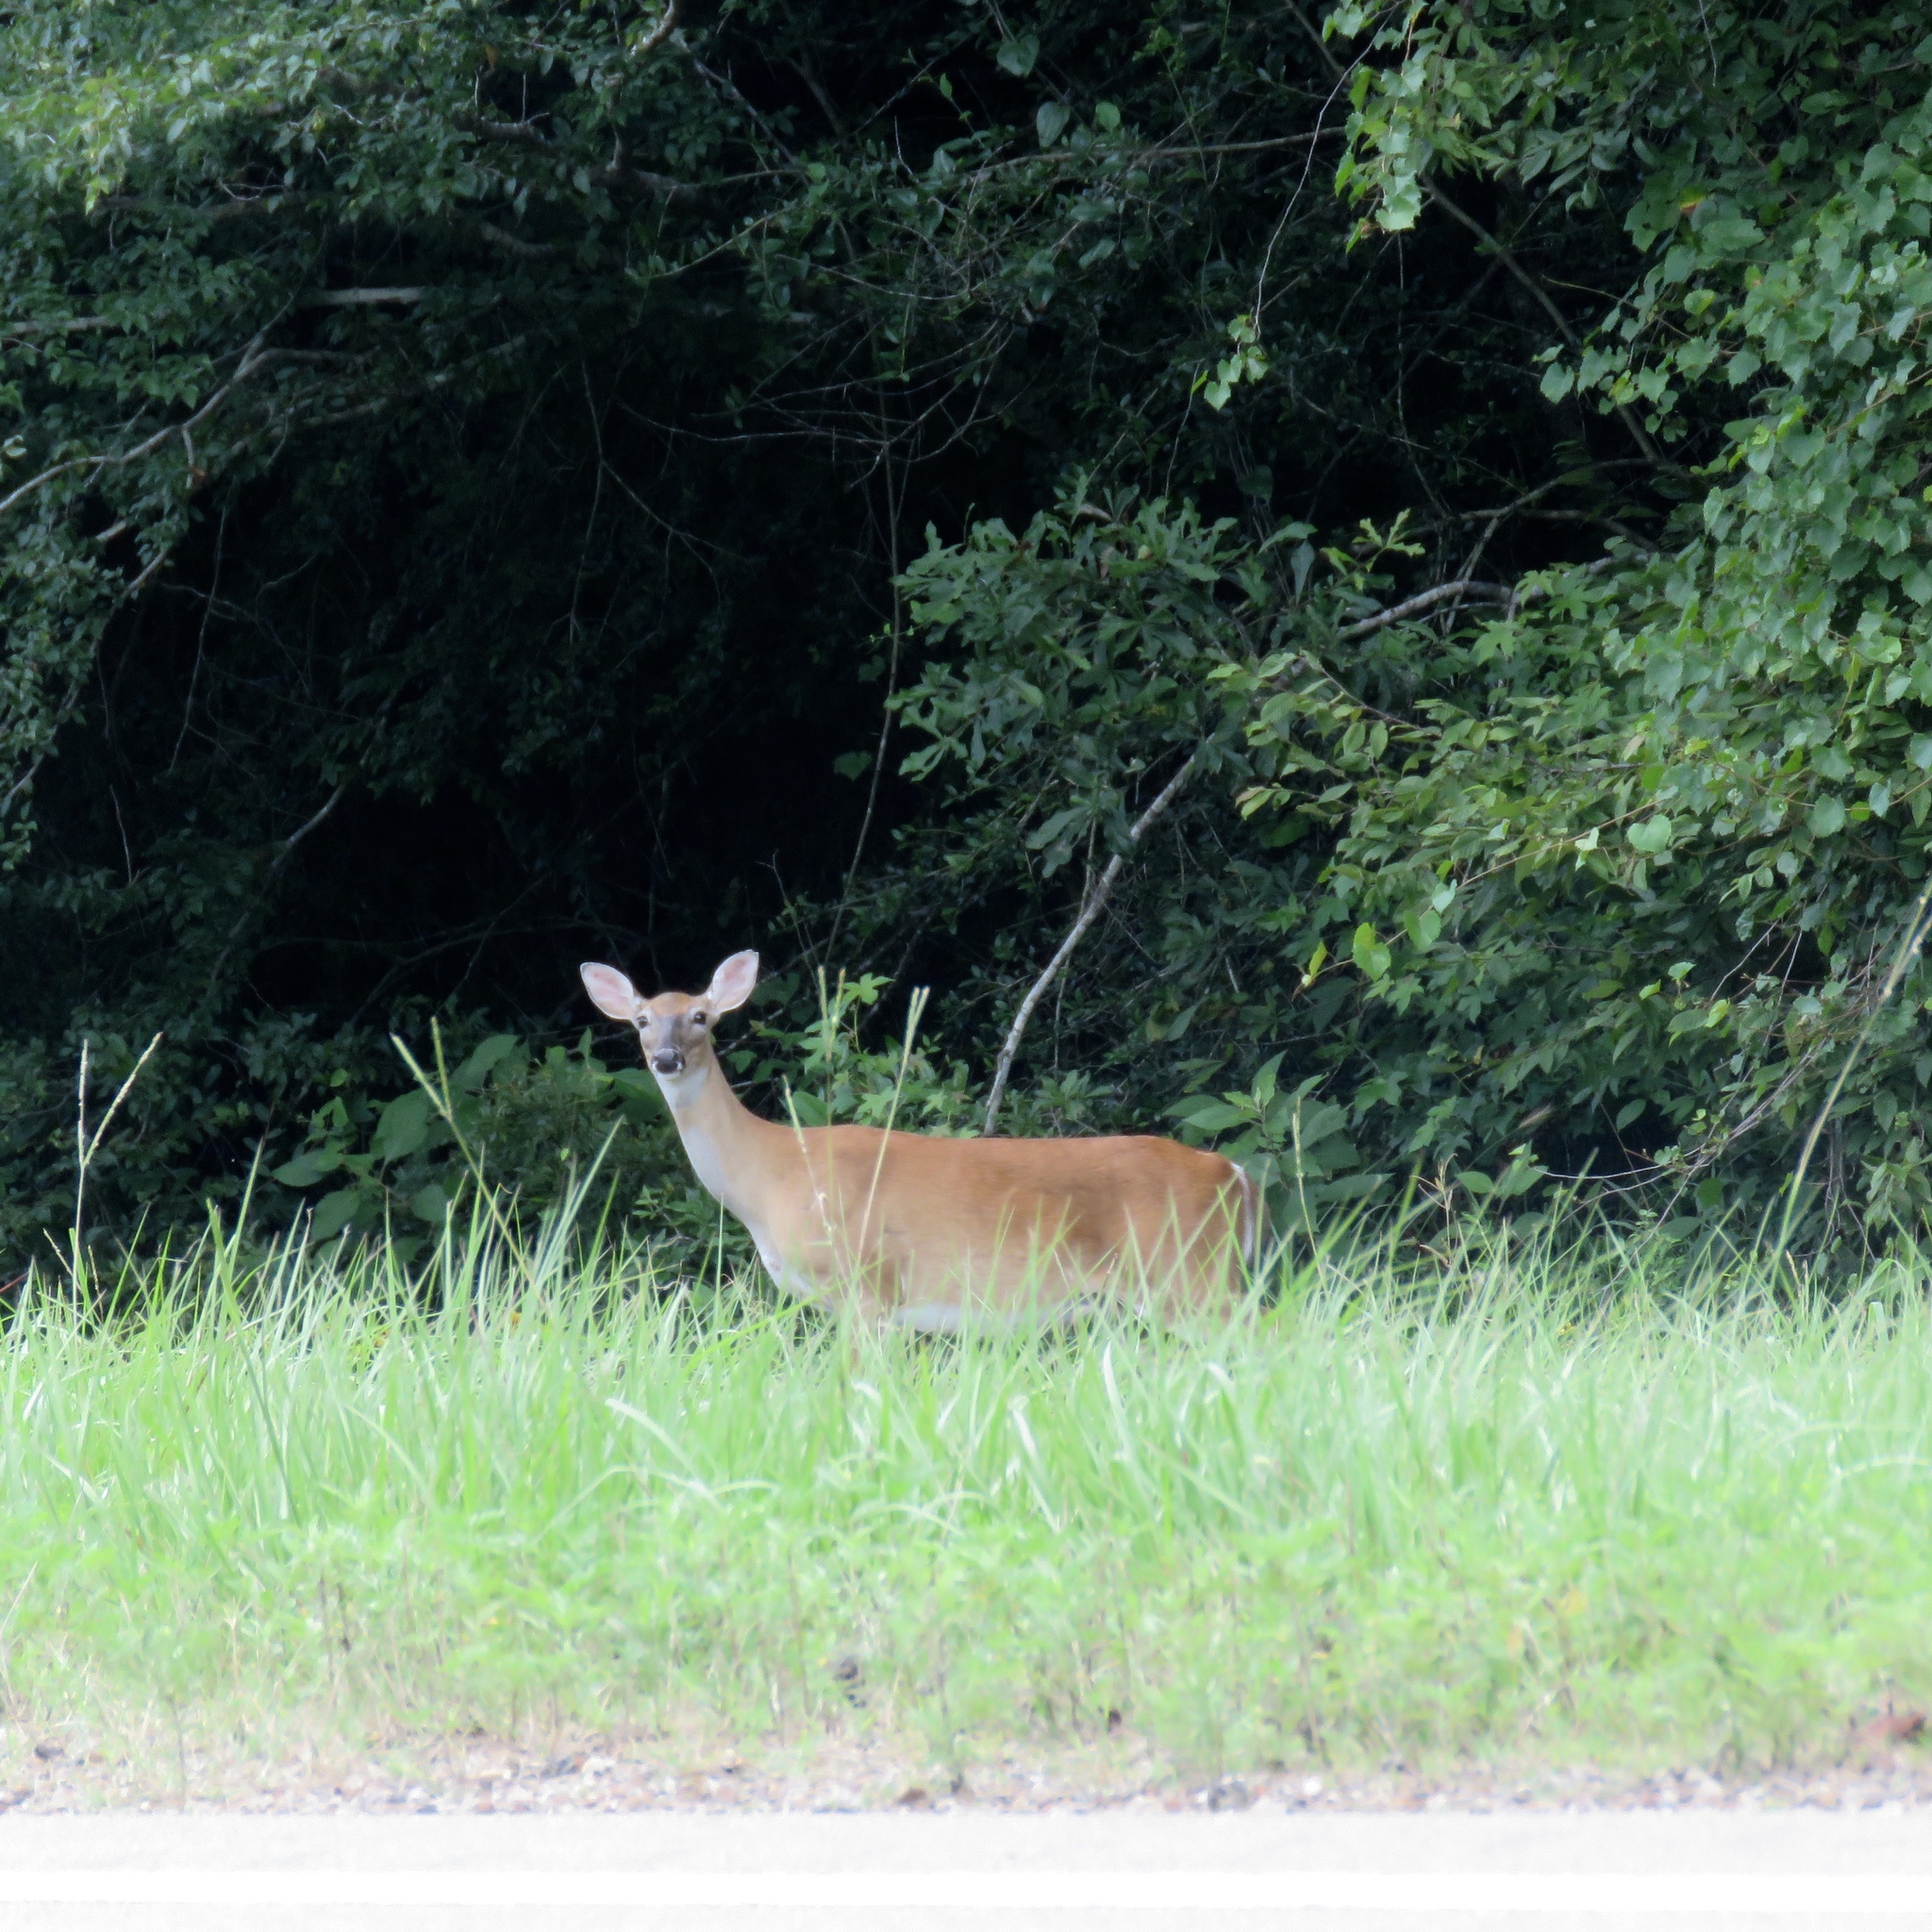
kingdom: Animalia
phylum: Chordata
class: Mammalia
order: Artiodactyla
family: Cervidae
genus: Odocoileus
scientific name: Odocoileus virginianus
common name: White-tailed deer
